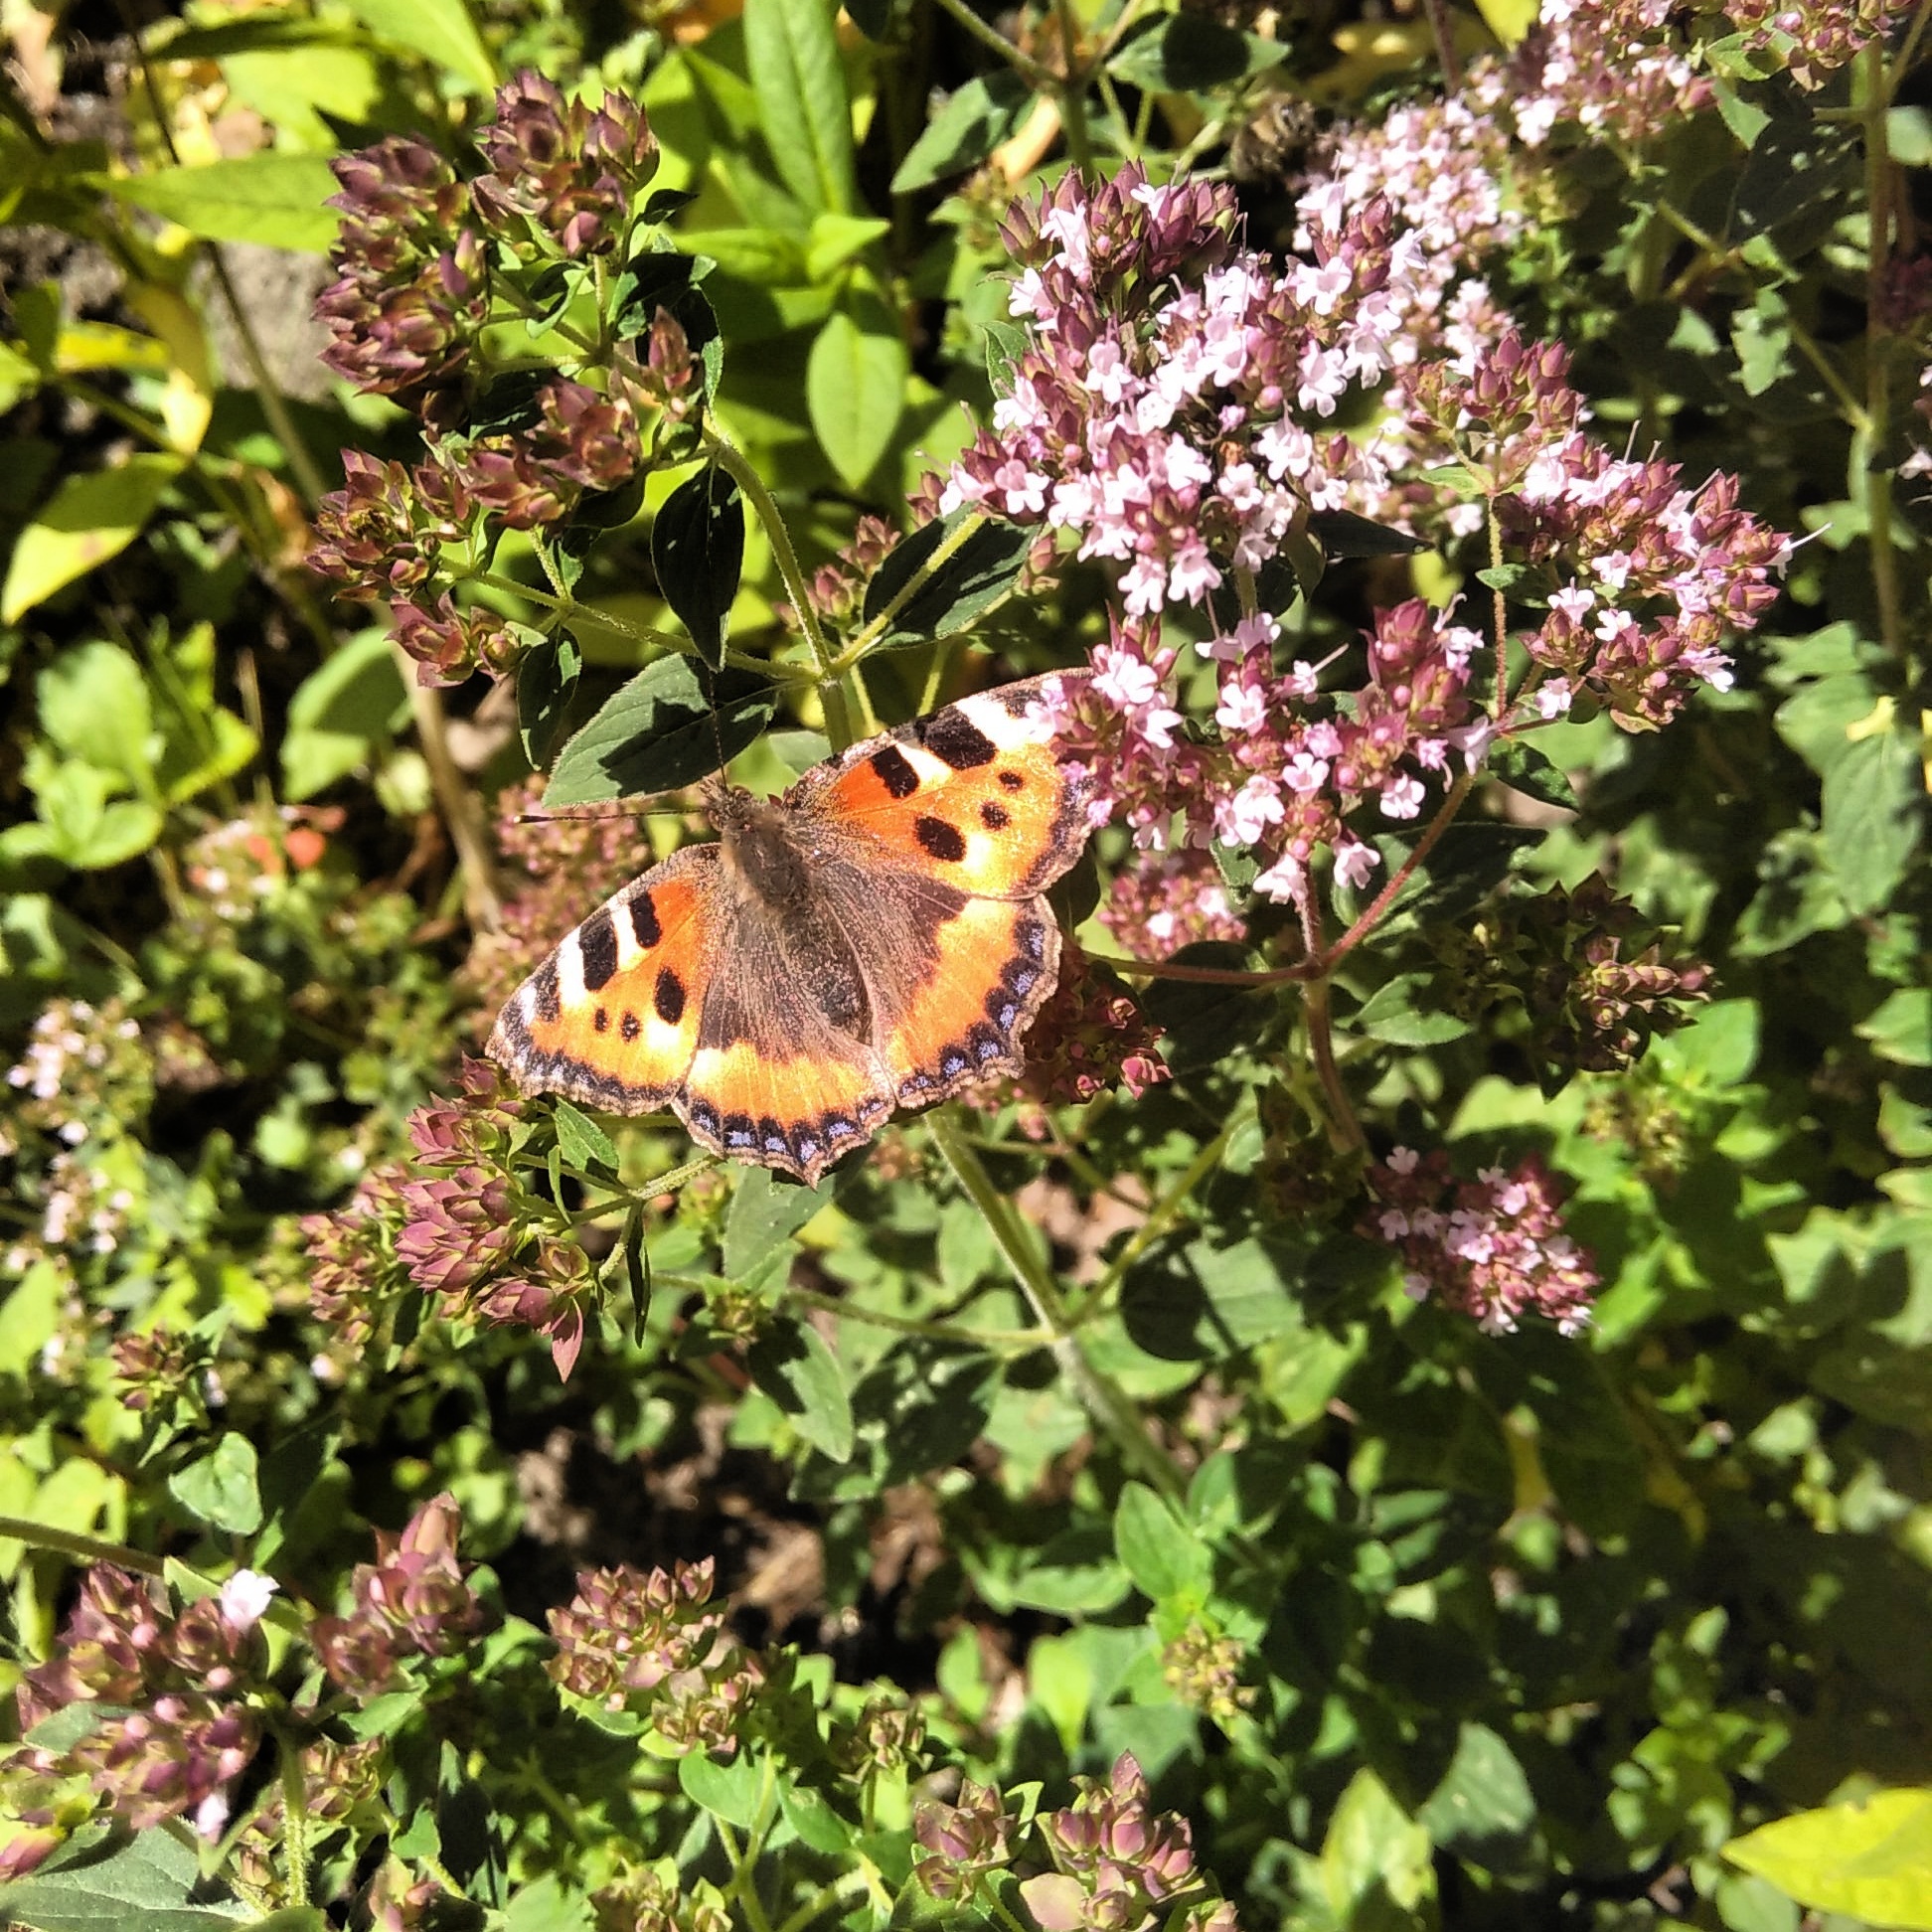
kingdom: Animalia
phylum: Arthropoda
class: Insecta
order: Lepidoptera
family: Nymphalidae
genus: Aglais
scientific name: Aglais urticae
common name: Small tortoiseshell
